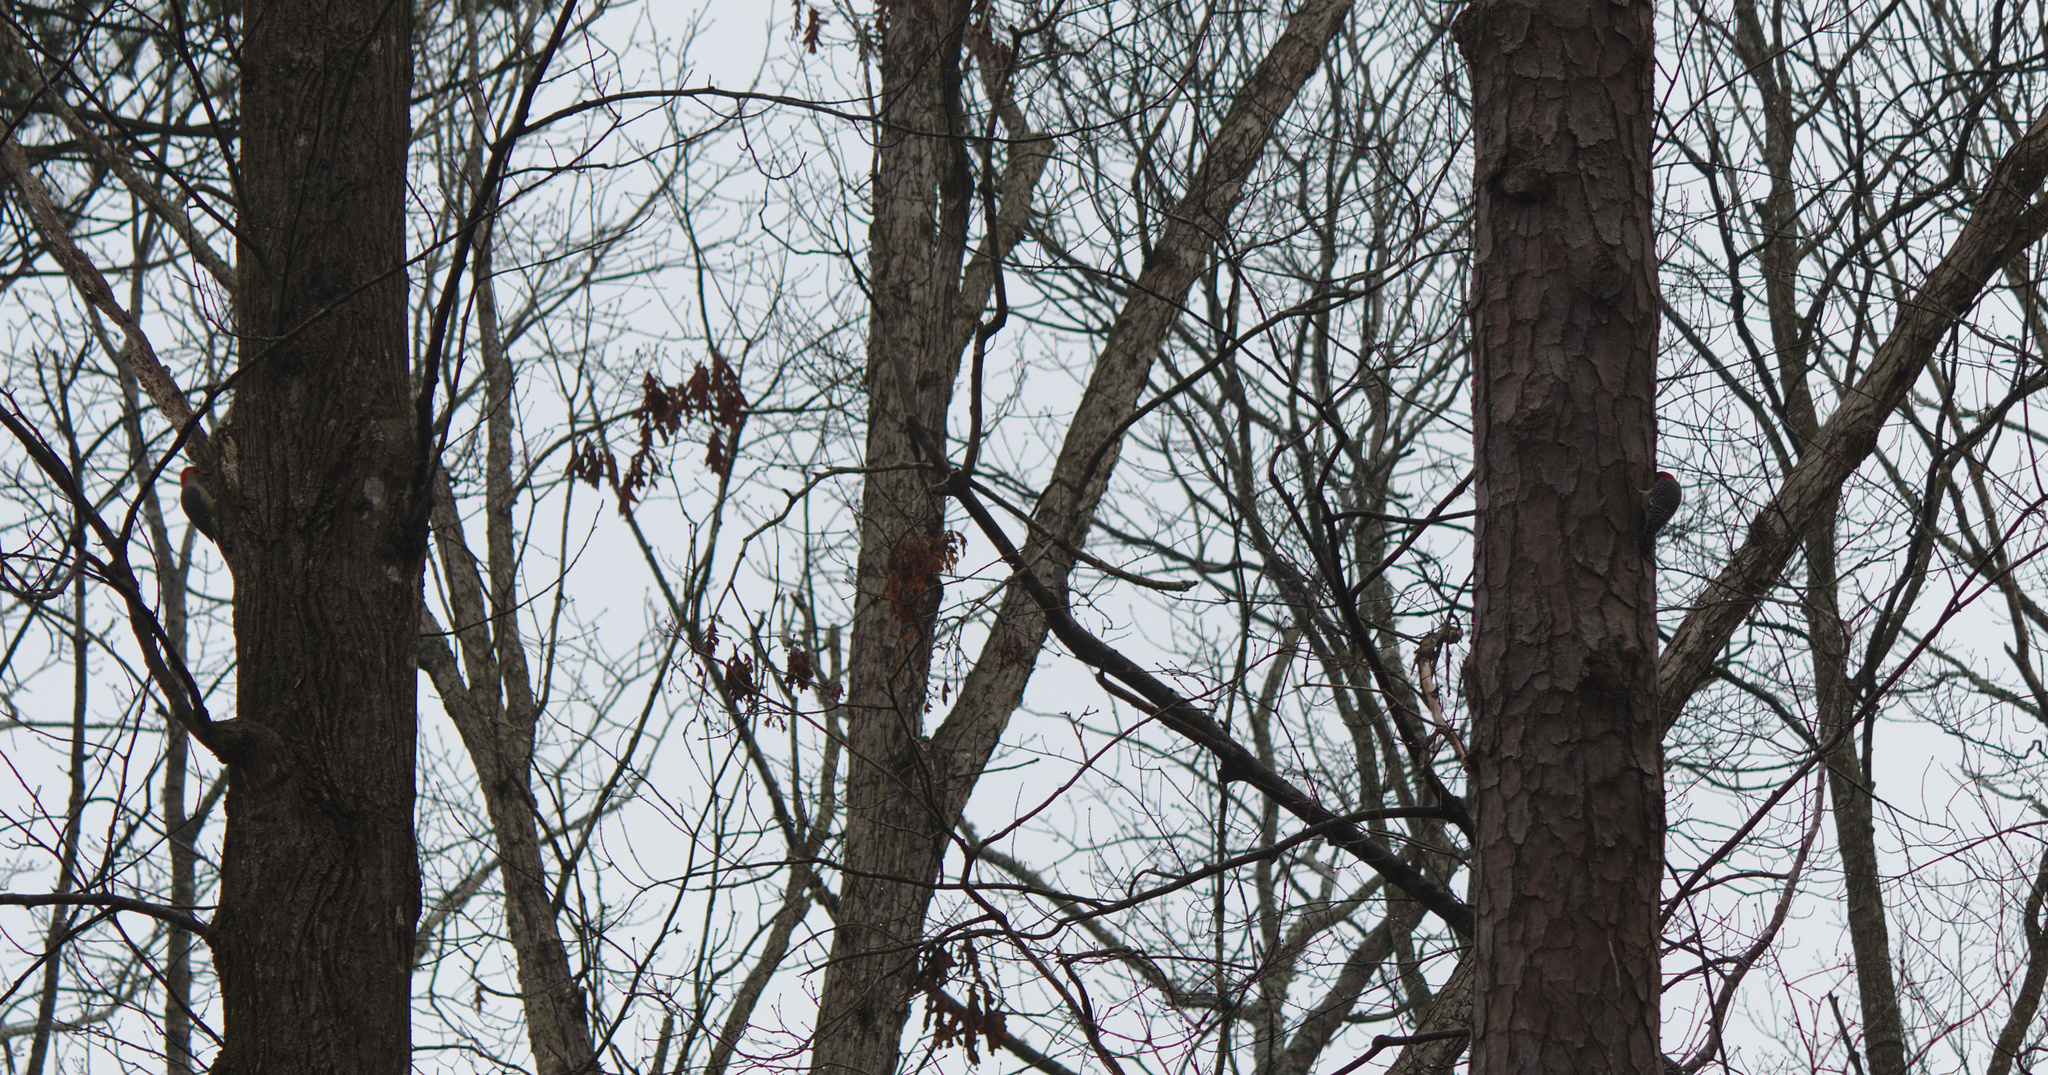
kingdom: Animalia
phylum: Chordata
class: Aves
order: Piciformes
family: Picidae
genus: Melanerpes
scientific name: Melanerpes carolinus
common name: Red-bellied woodpecker
